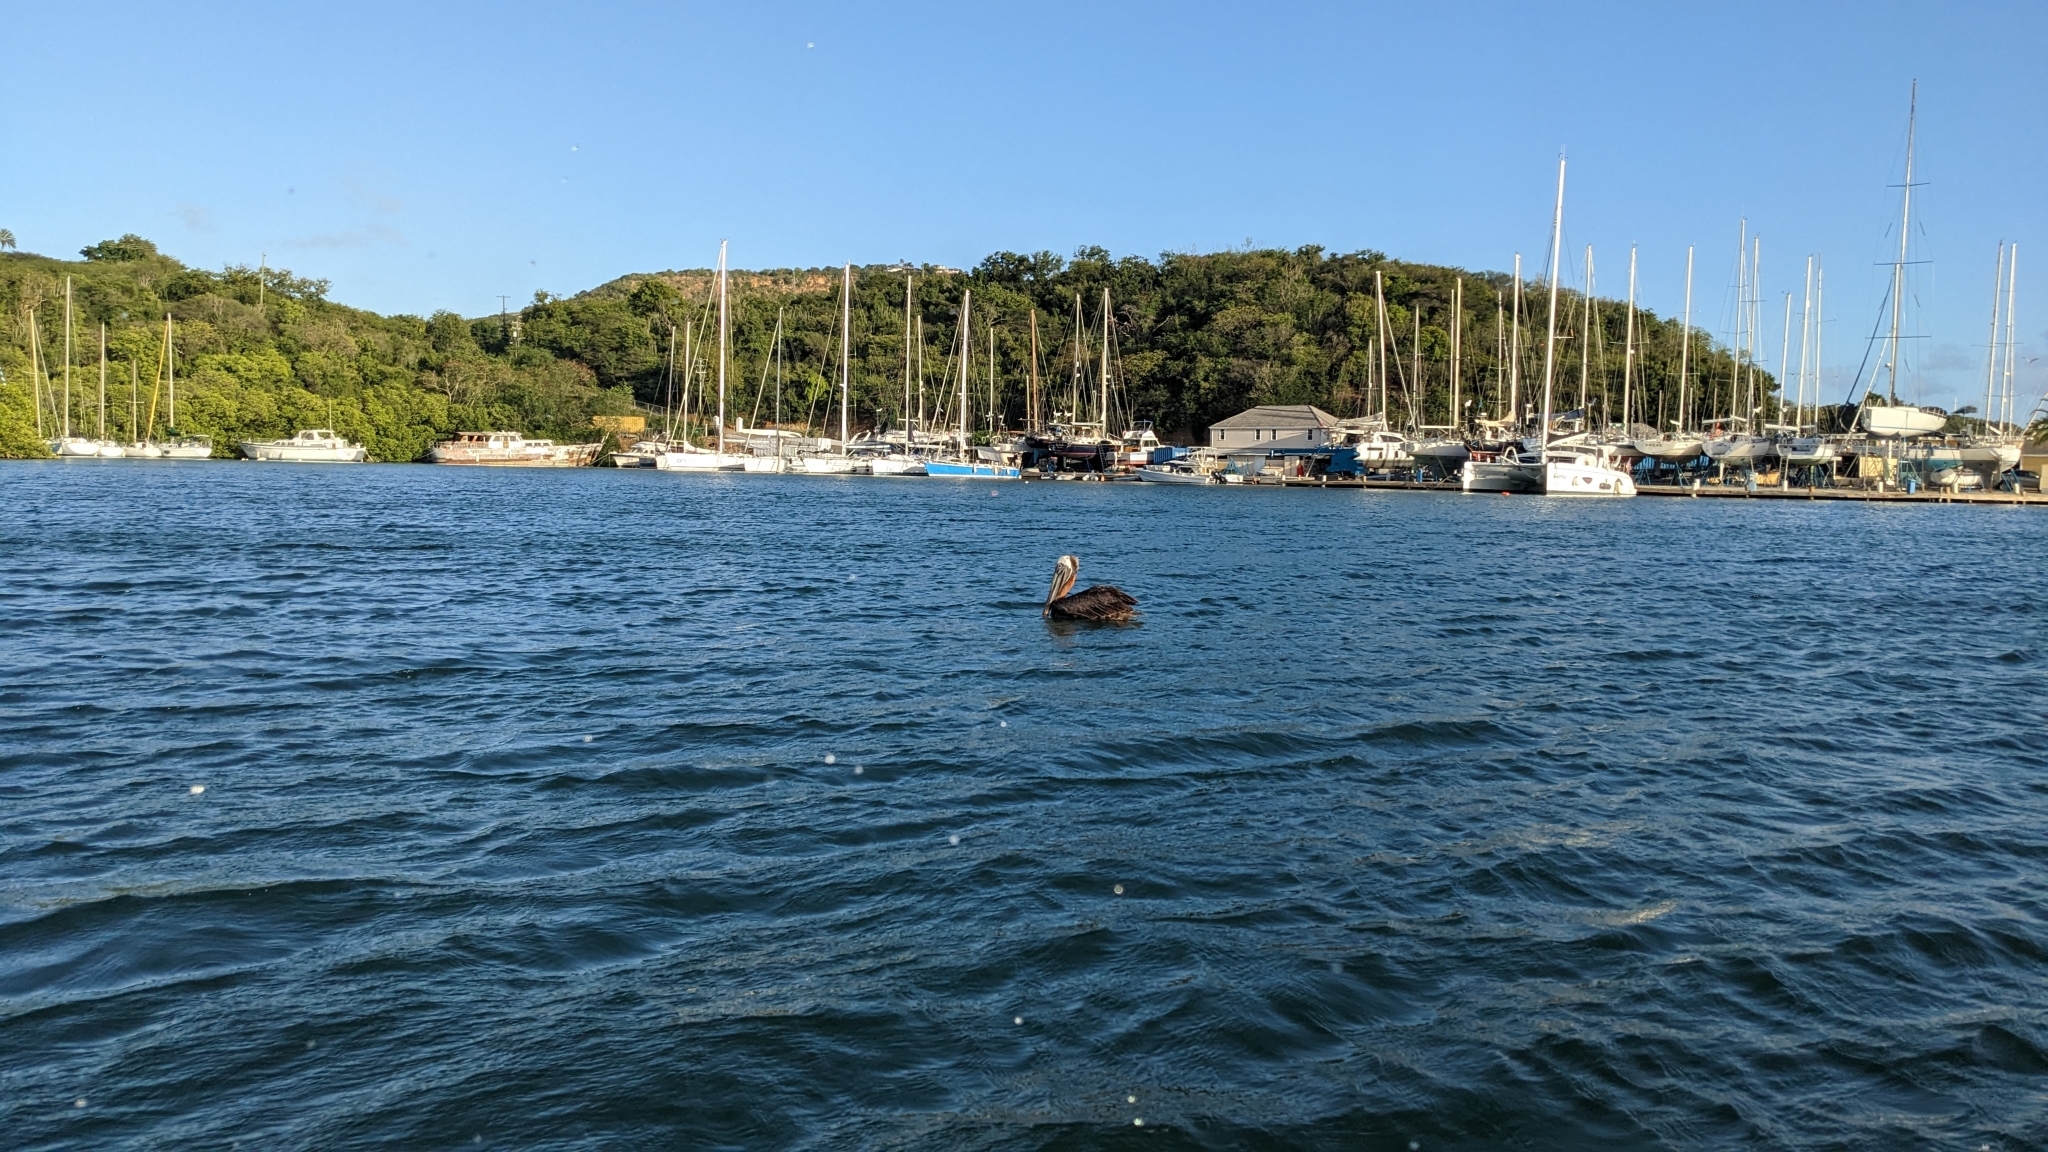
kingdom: Animalia
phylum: Chordata
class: Aves
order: Pelecaniformes
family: Pelecanidae
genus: Pelecanus
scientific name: Pelecanus occidentalis
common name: Brown pelican
